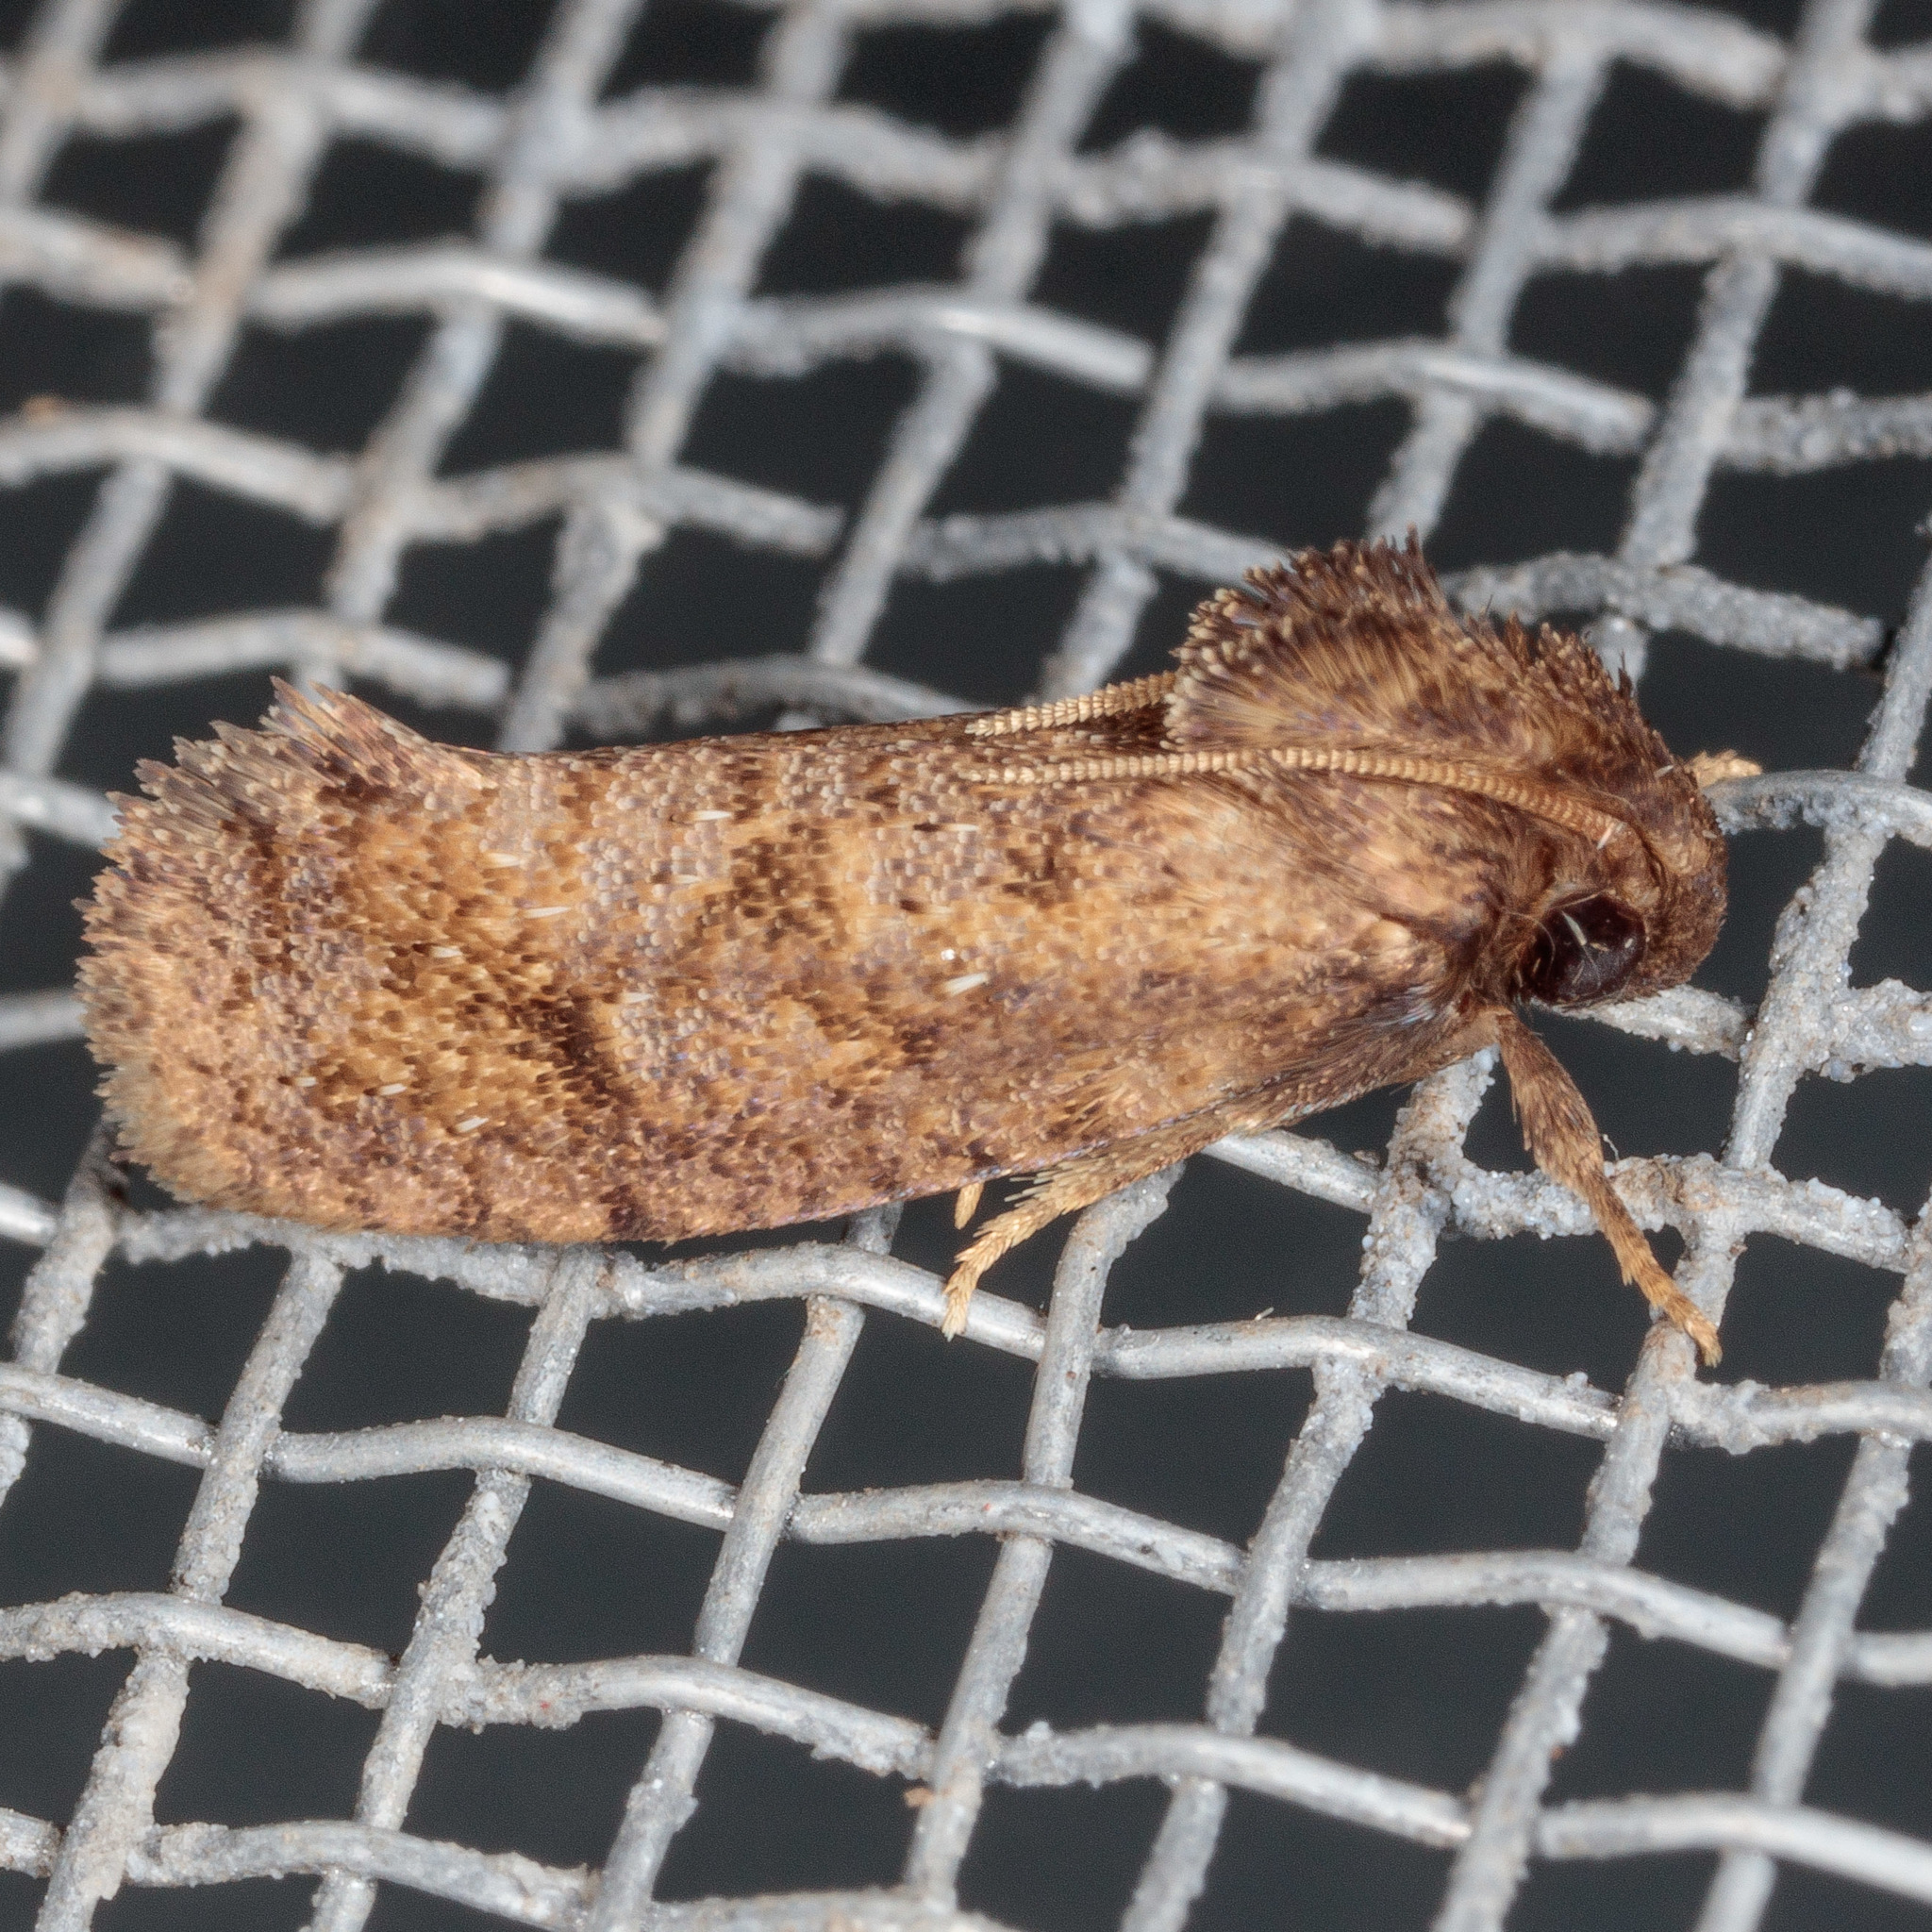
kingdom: Animalia
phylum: Arthropoda
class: Insecta
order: Lepidoptera
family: Tineidae
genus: Acrolophus
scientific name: Acrolophus texanella
